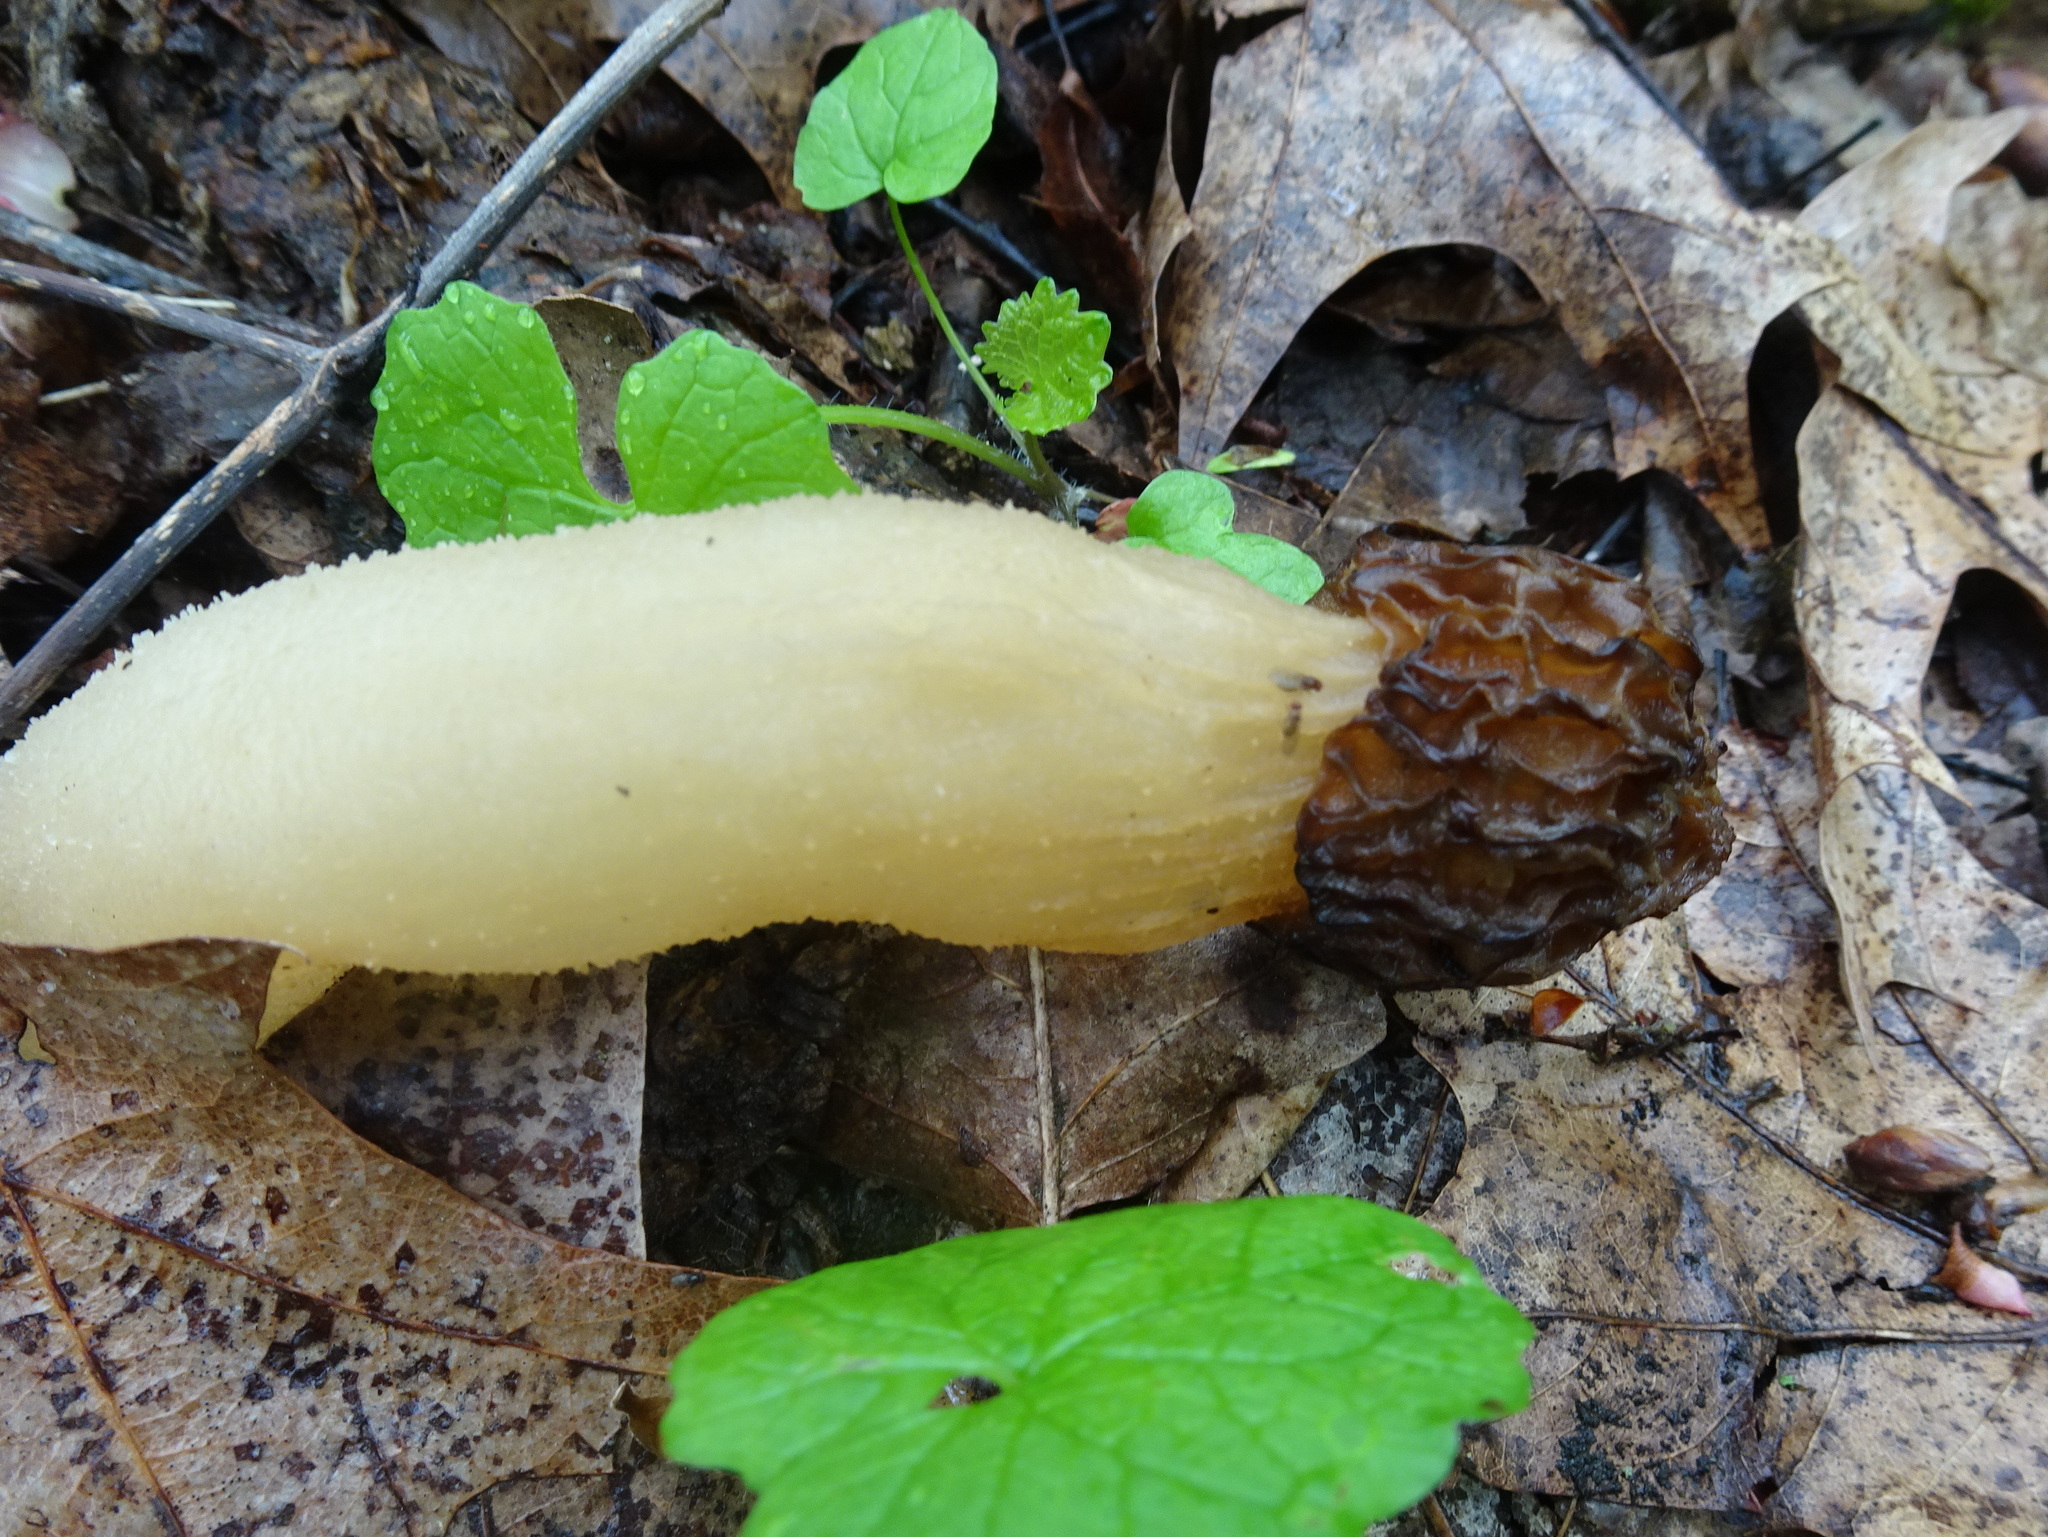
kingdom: Fungi
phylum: Ascomycota
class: Pezizomycetes
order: Pezizales
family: Morchellaceae
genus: Morchella
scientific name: Morchella punctipes
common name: Half-free morel
